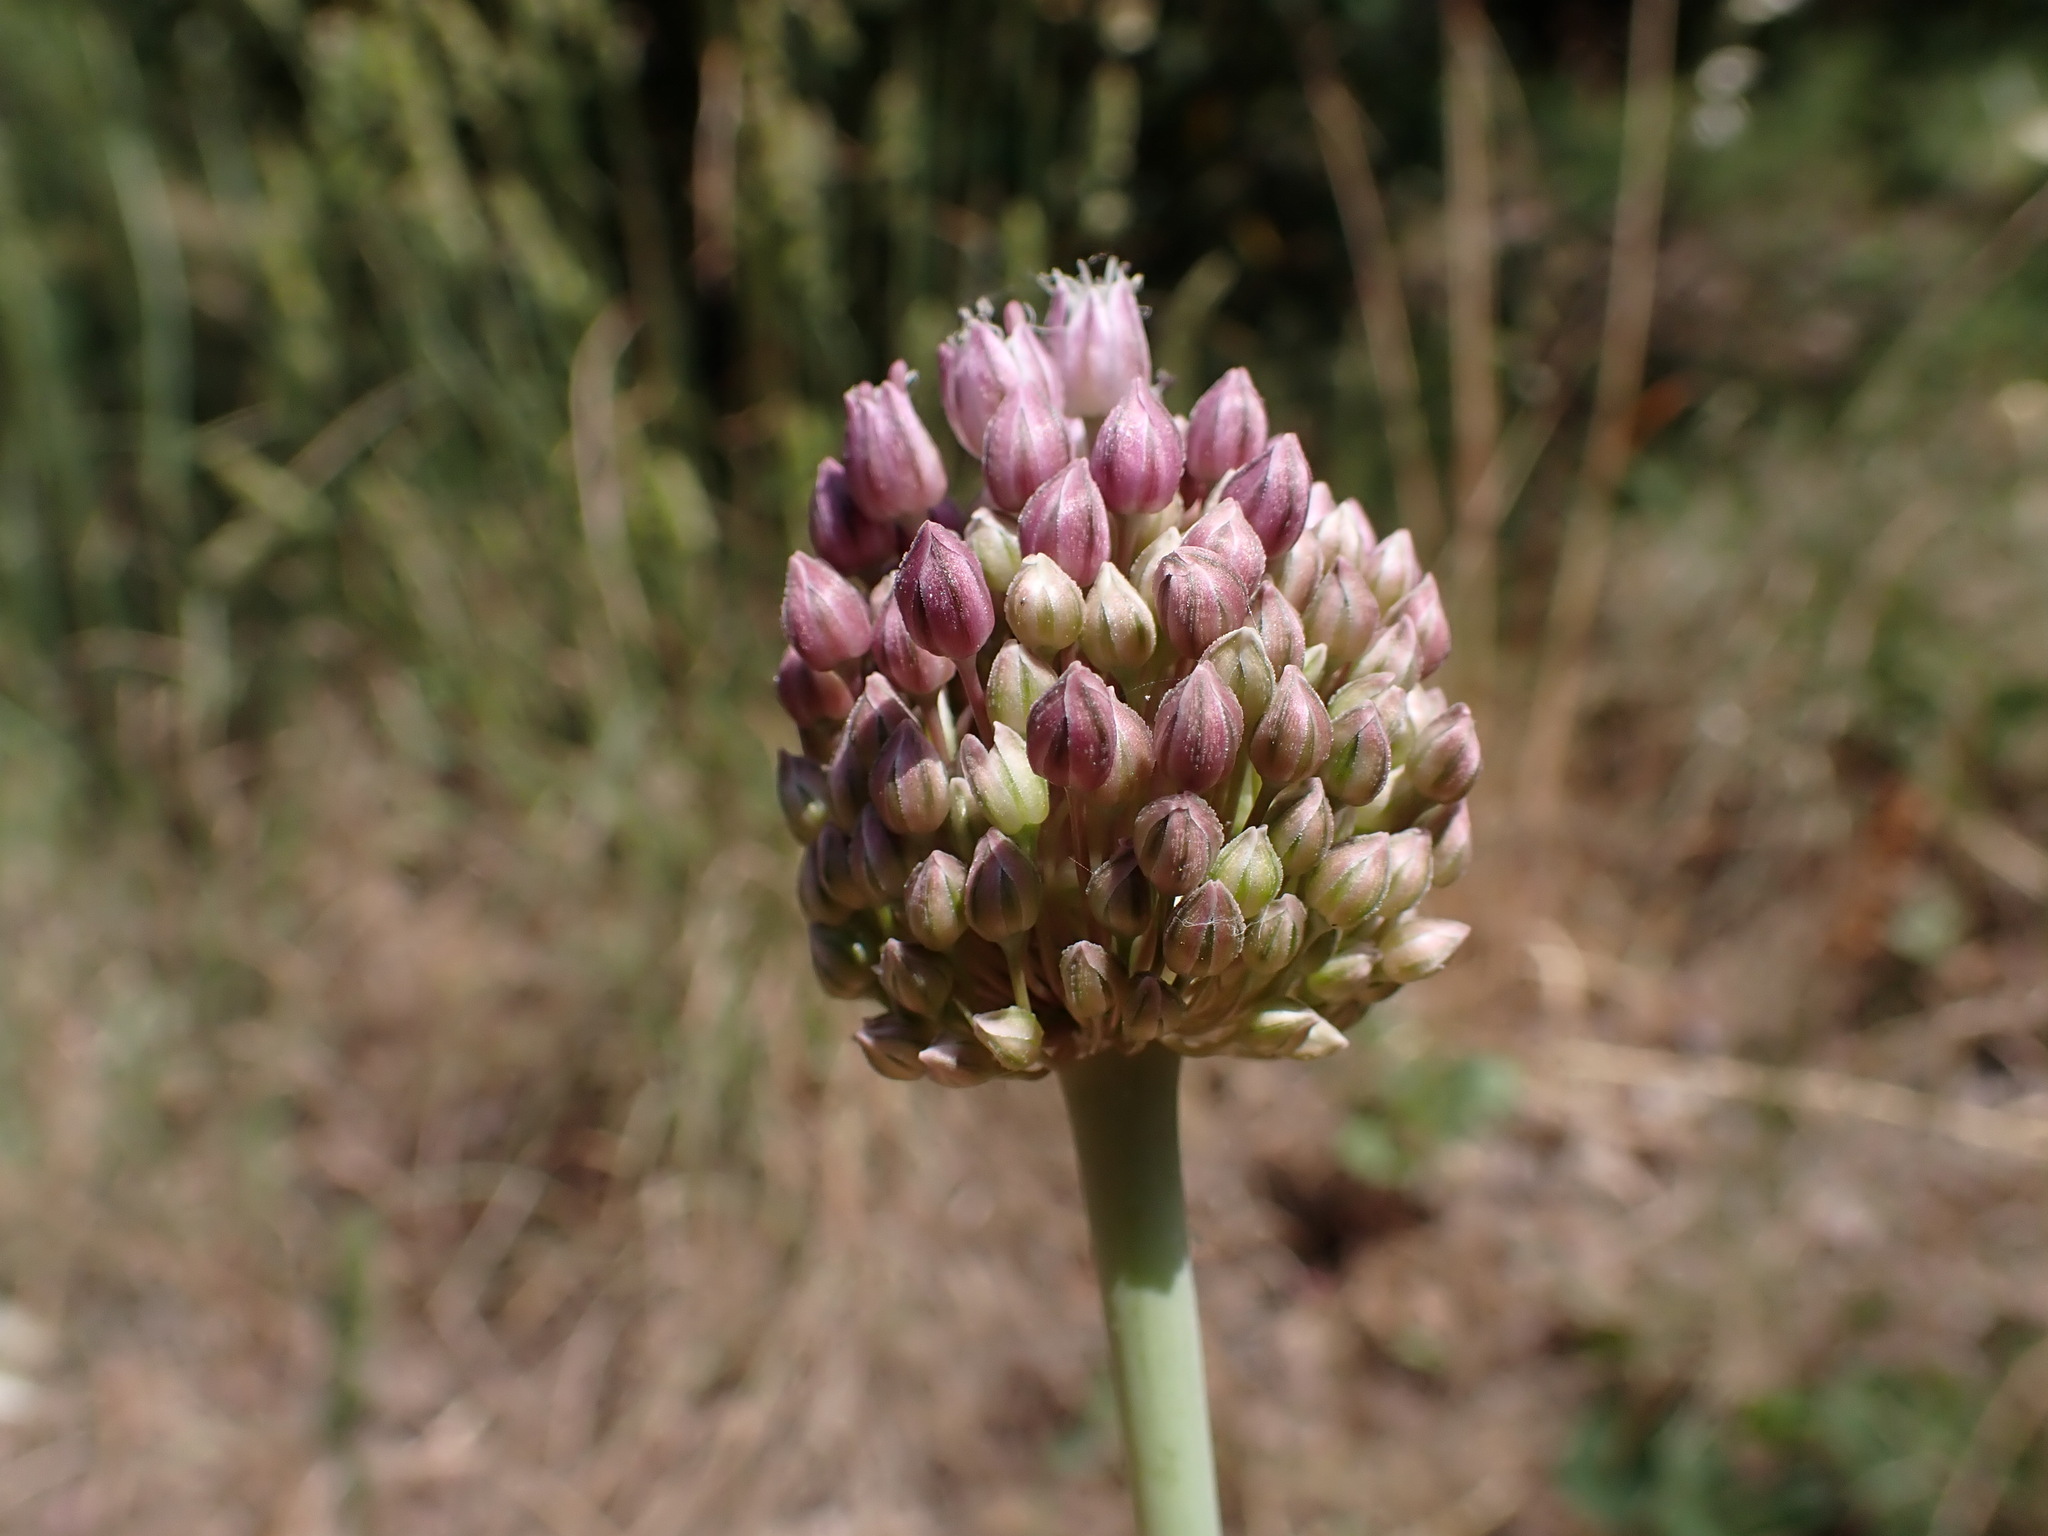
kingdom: Plantae
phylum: Tracheophyta
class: Liliopsida
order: Asparagales
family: Amaryllidaceae
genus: Allium
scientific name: Allium ampeloprasum
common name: Wild leek
